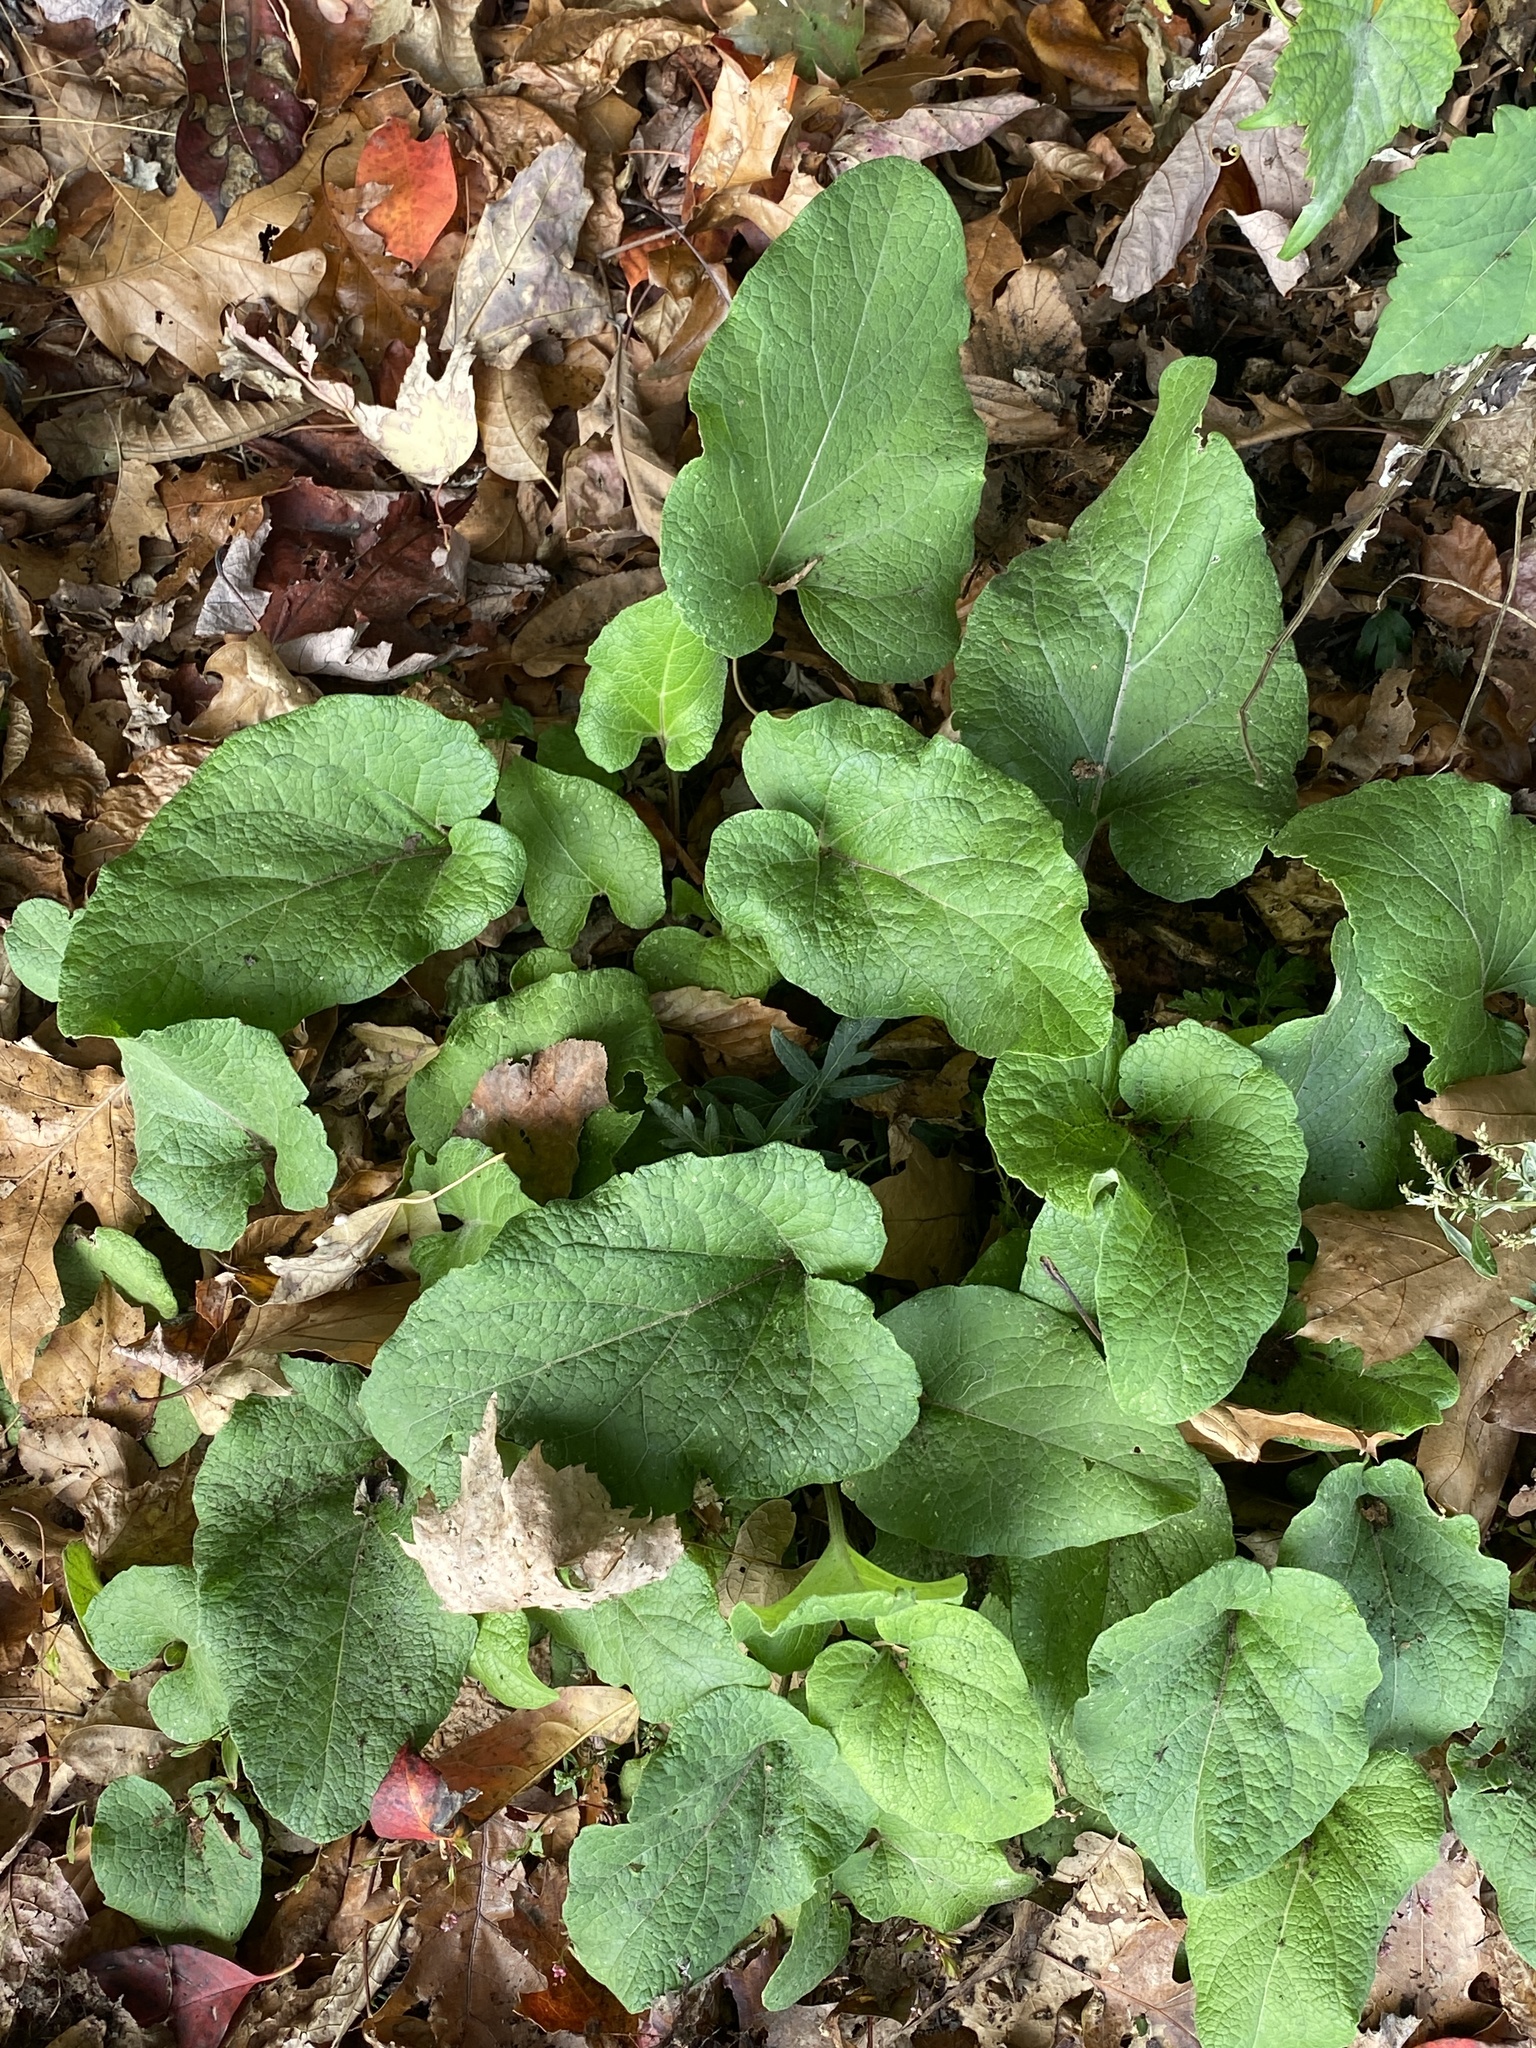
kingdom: Plantae
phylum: Tracheophyta
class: Magnoliopsida
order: Asterales
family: Asteraceae
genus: Arctium
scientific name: Arctium
